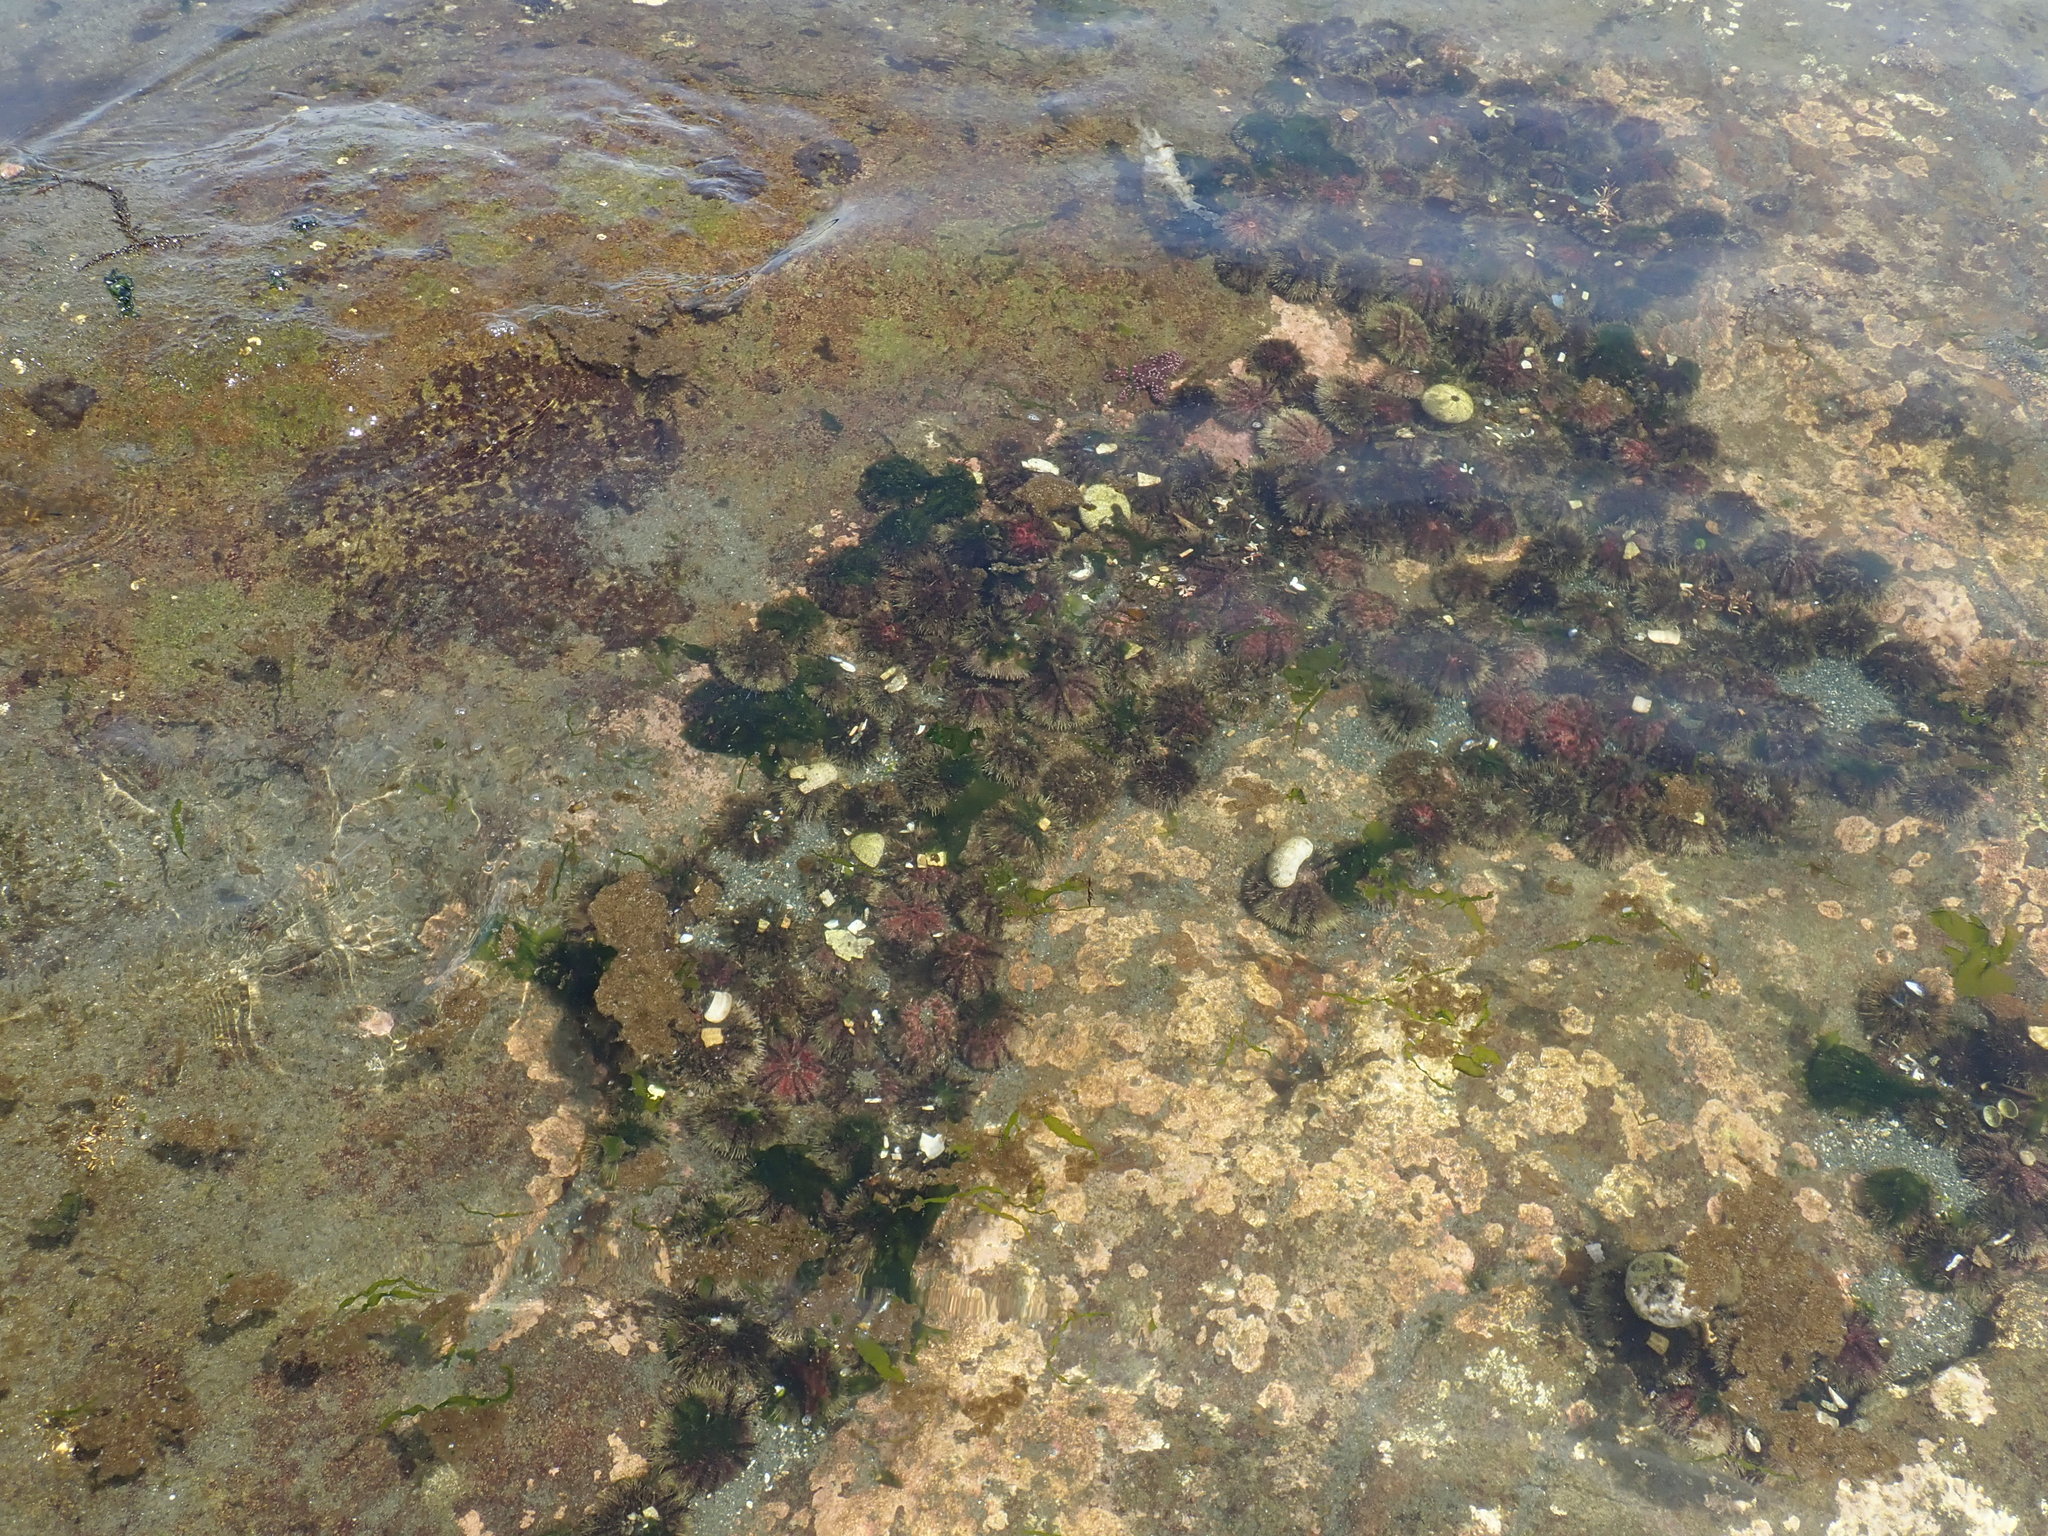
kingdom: Animalia
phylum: Echinodermata
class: Echinoidea
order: Camarodonta
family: Strongylocentrotidae
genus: Strongylocentrotus
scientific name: Strongylocentrotus droebachiensis
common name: Northern sea urchin
